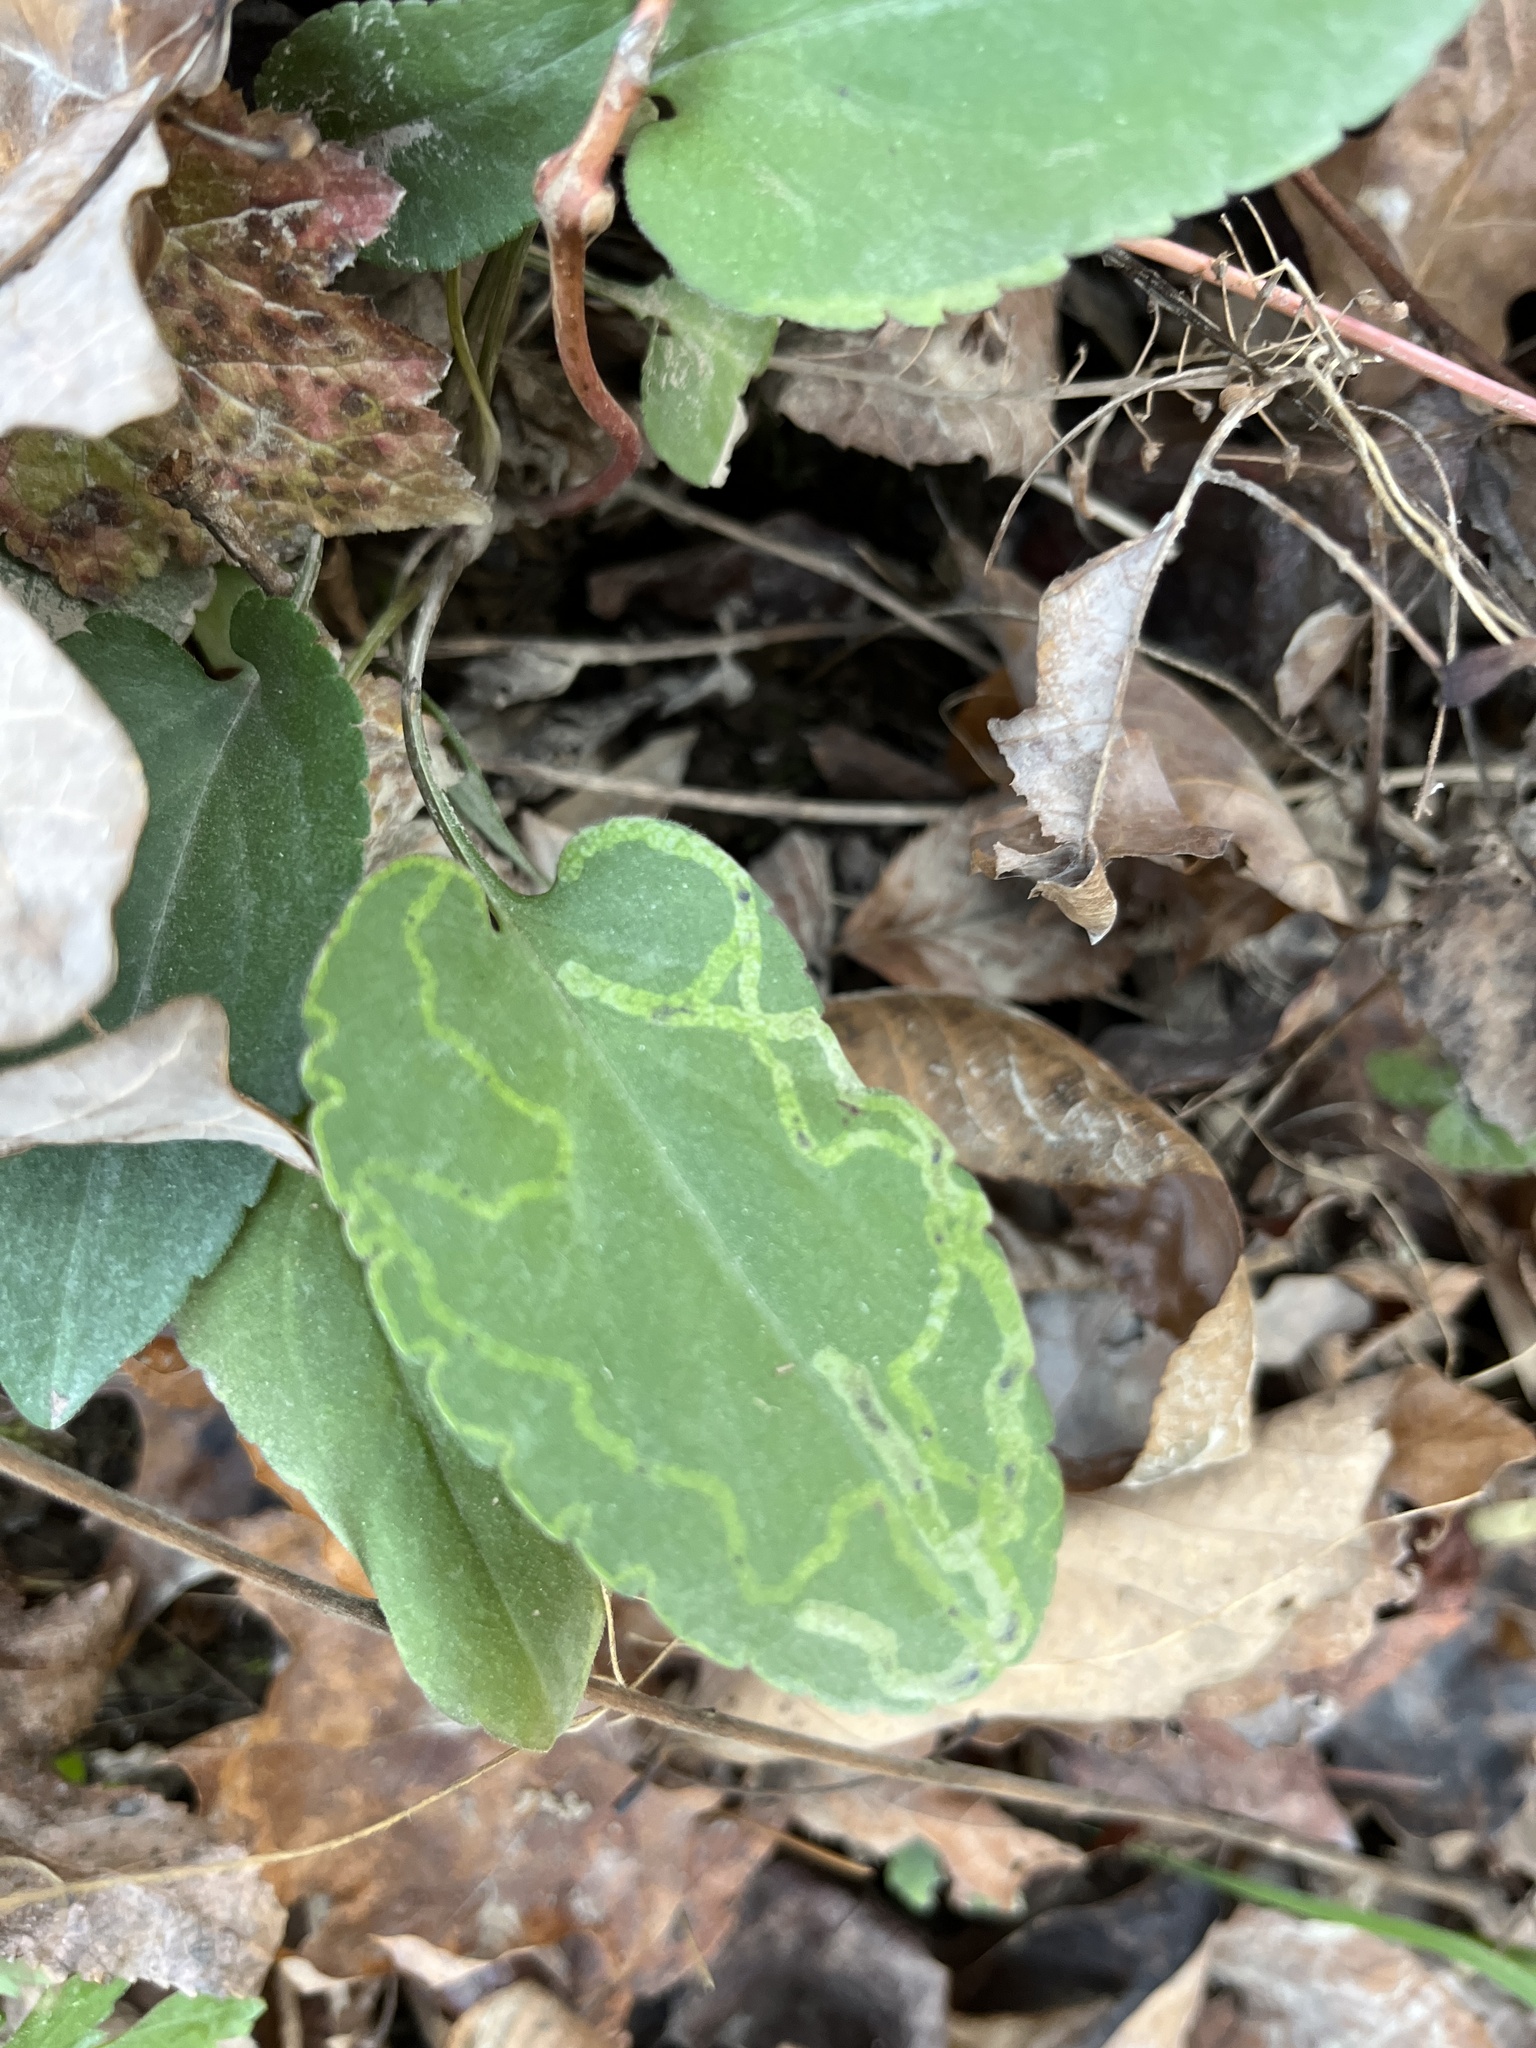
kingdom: Animalia
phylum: Arthropoda
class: Insecta
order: Diptera
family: Agromyzidae
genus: Ophiomyia
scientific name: Ophiomyia parda
